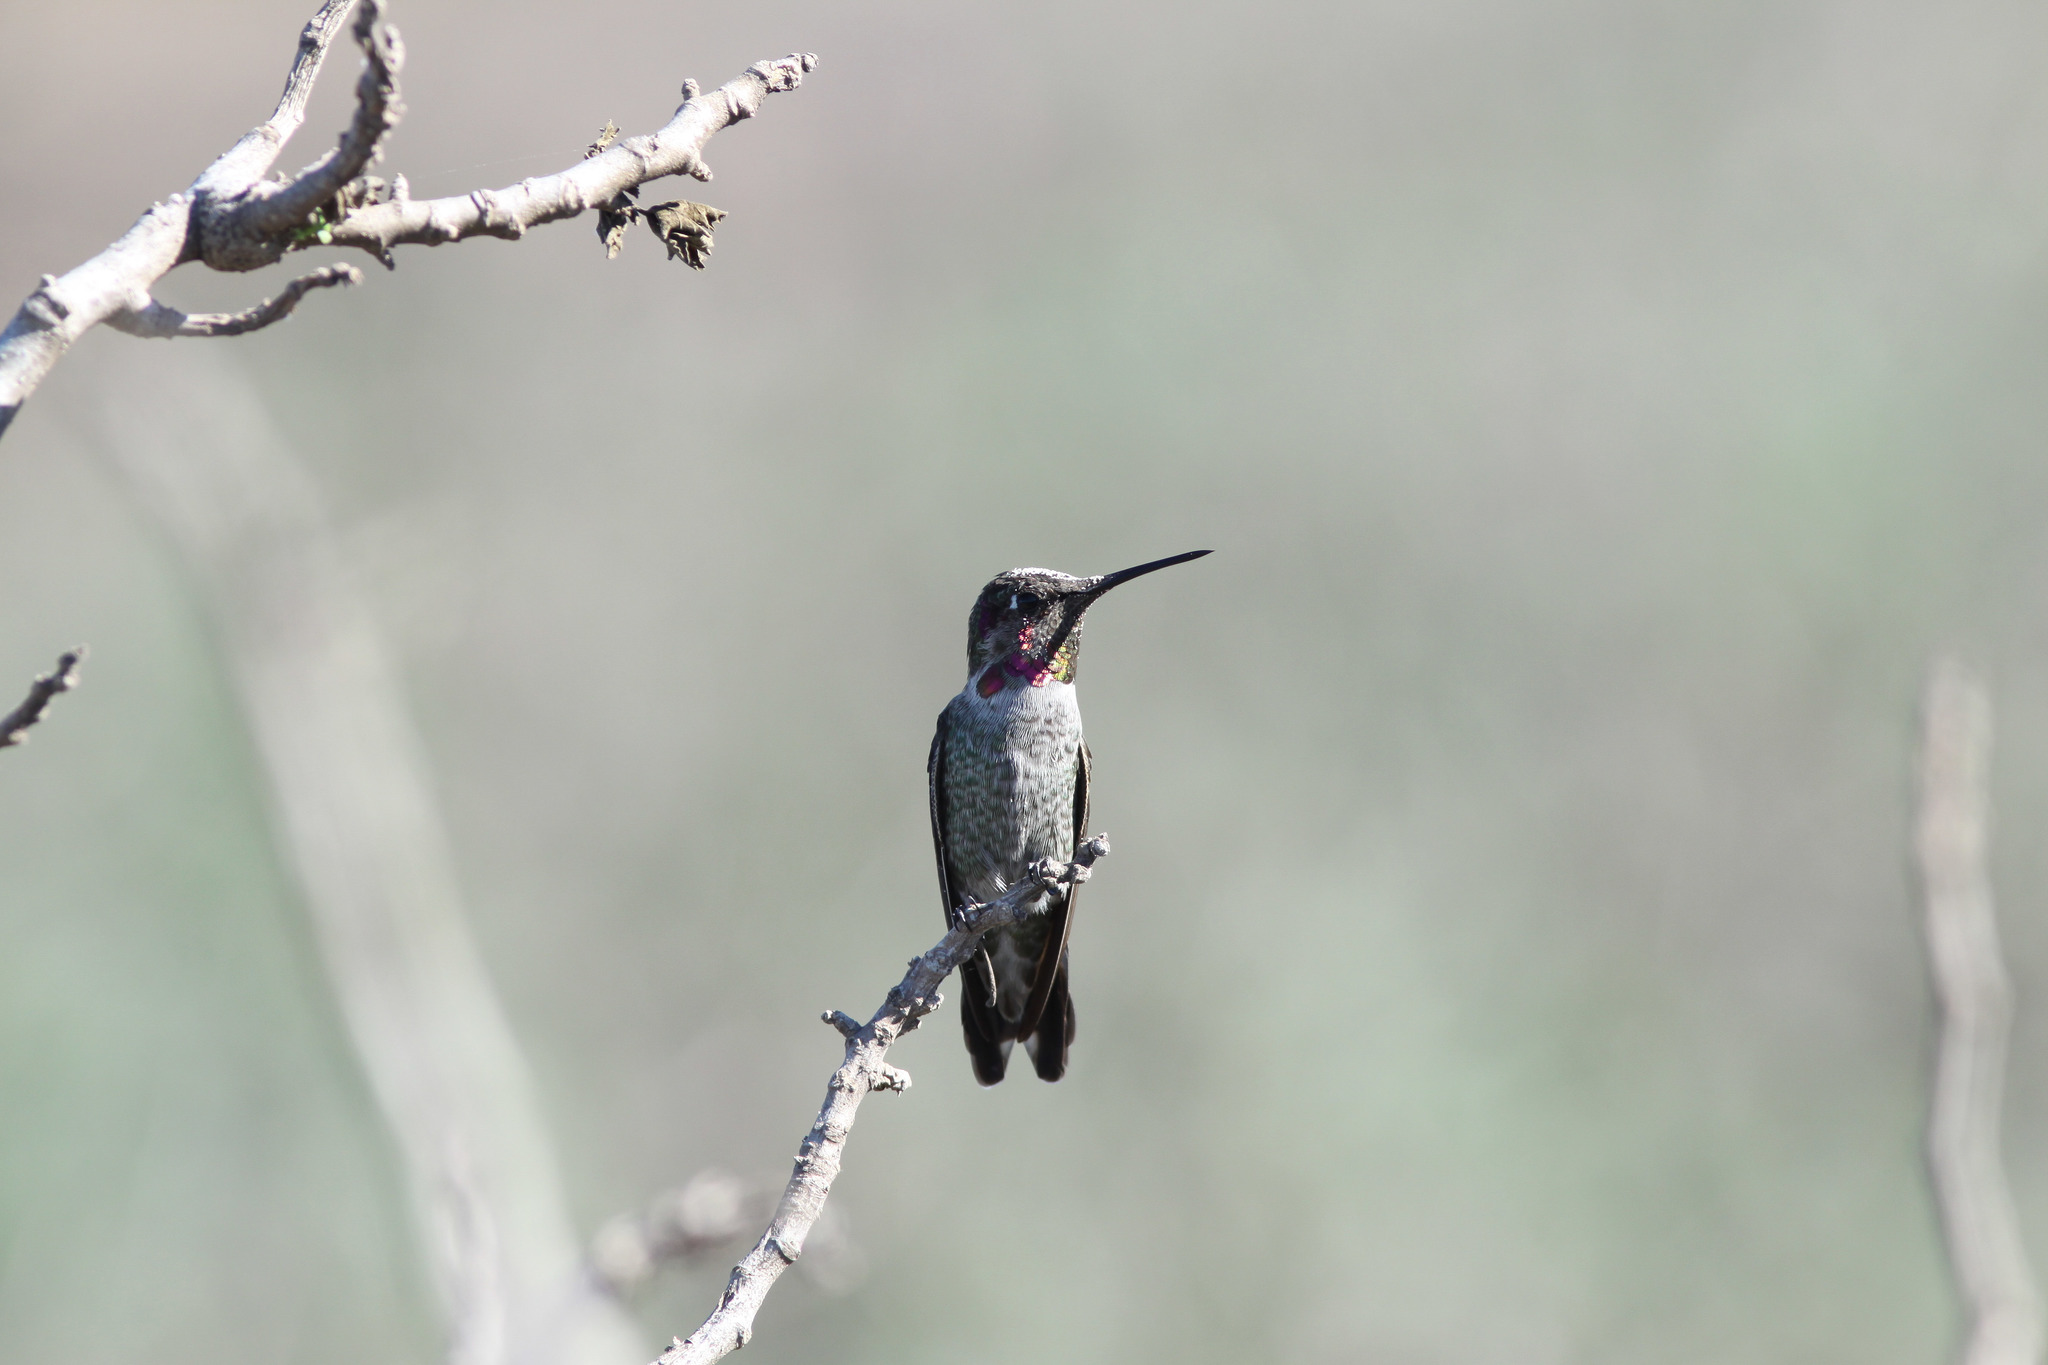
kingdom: Animalia
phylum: Chordata
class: Aves
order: Apodiformes
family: Trochilidae
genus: Calypte
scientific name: Calypte anna
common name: Anna's hummingbird
